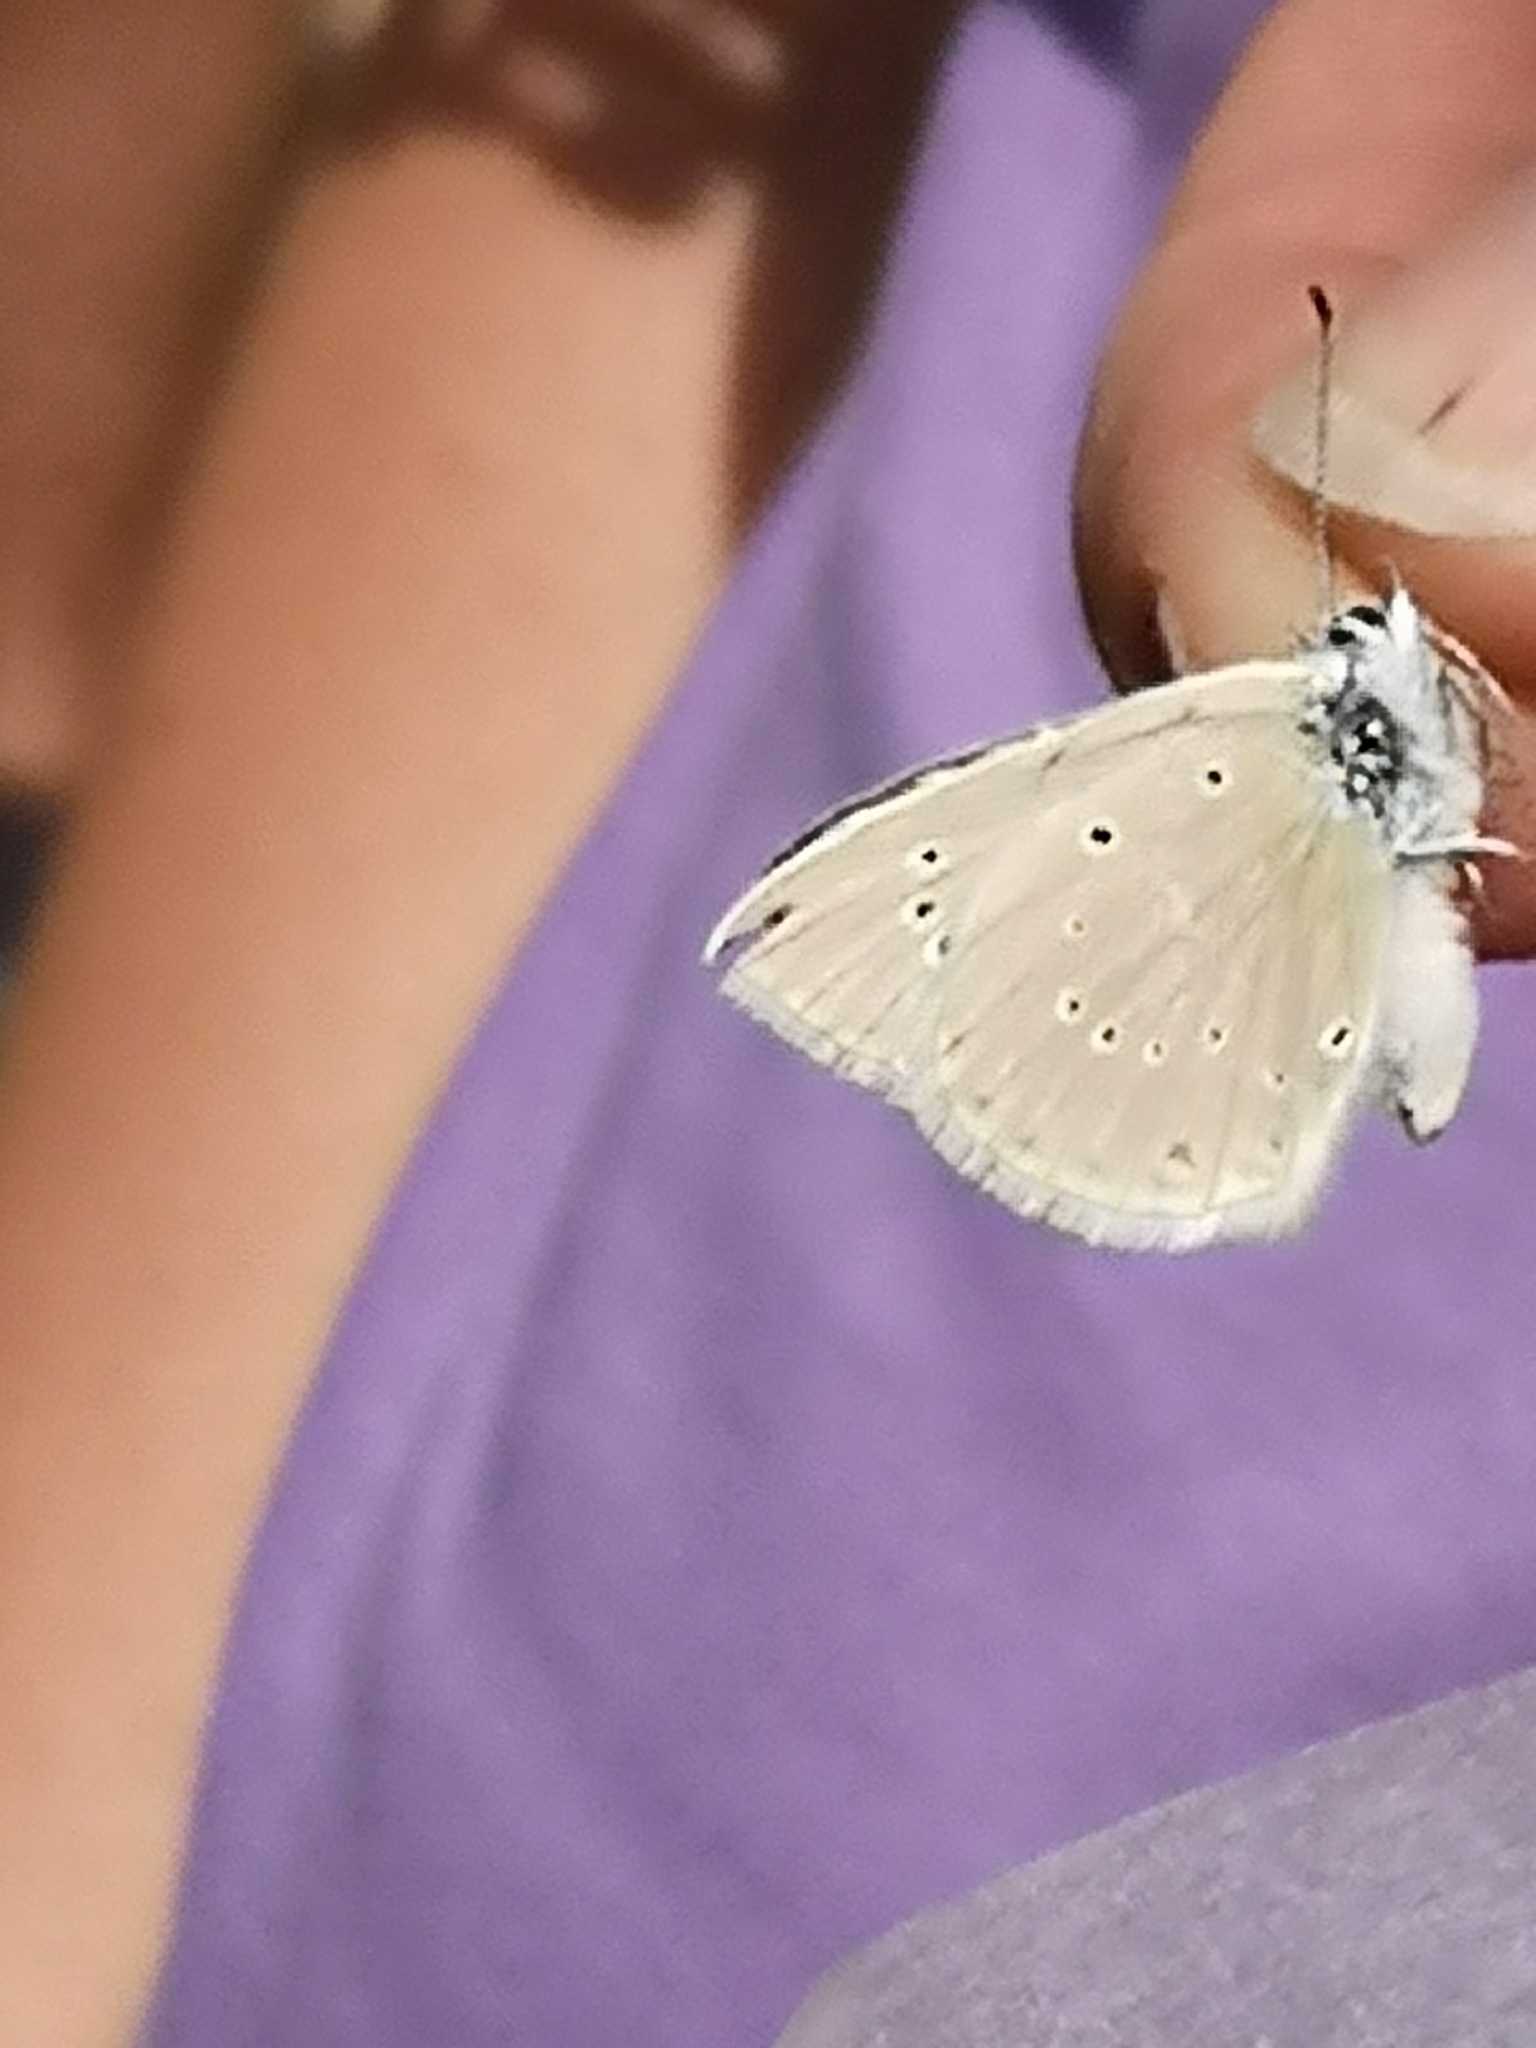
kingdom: Animalia
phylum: Arthropoda
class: Insecta
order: Lepidoptera
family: Lycaenidae
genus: Agrodiaetus
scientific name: Agrodiaetus virgilia
